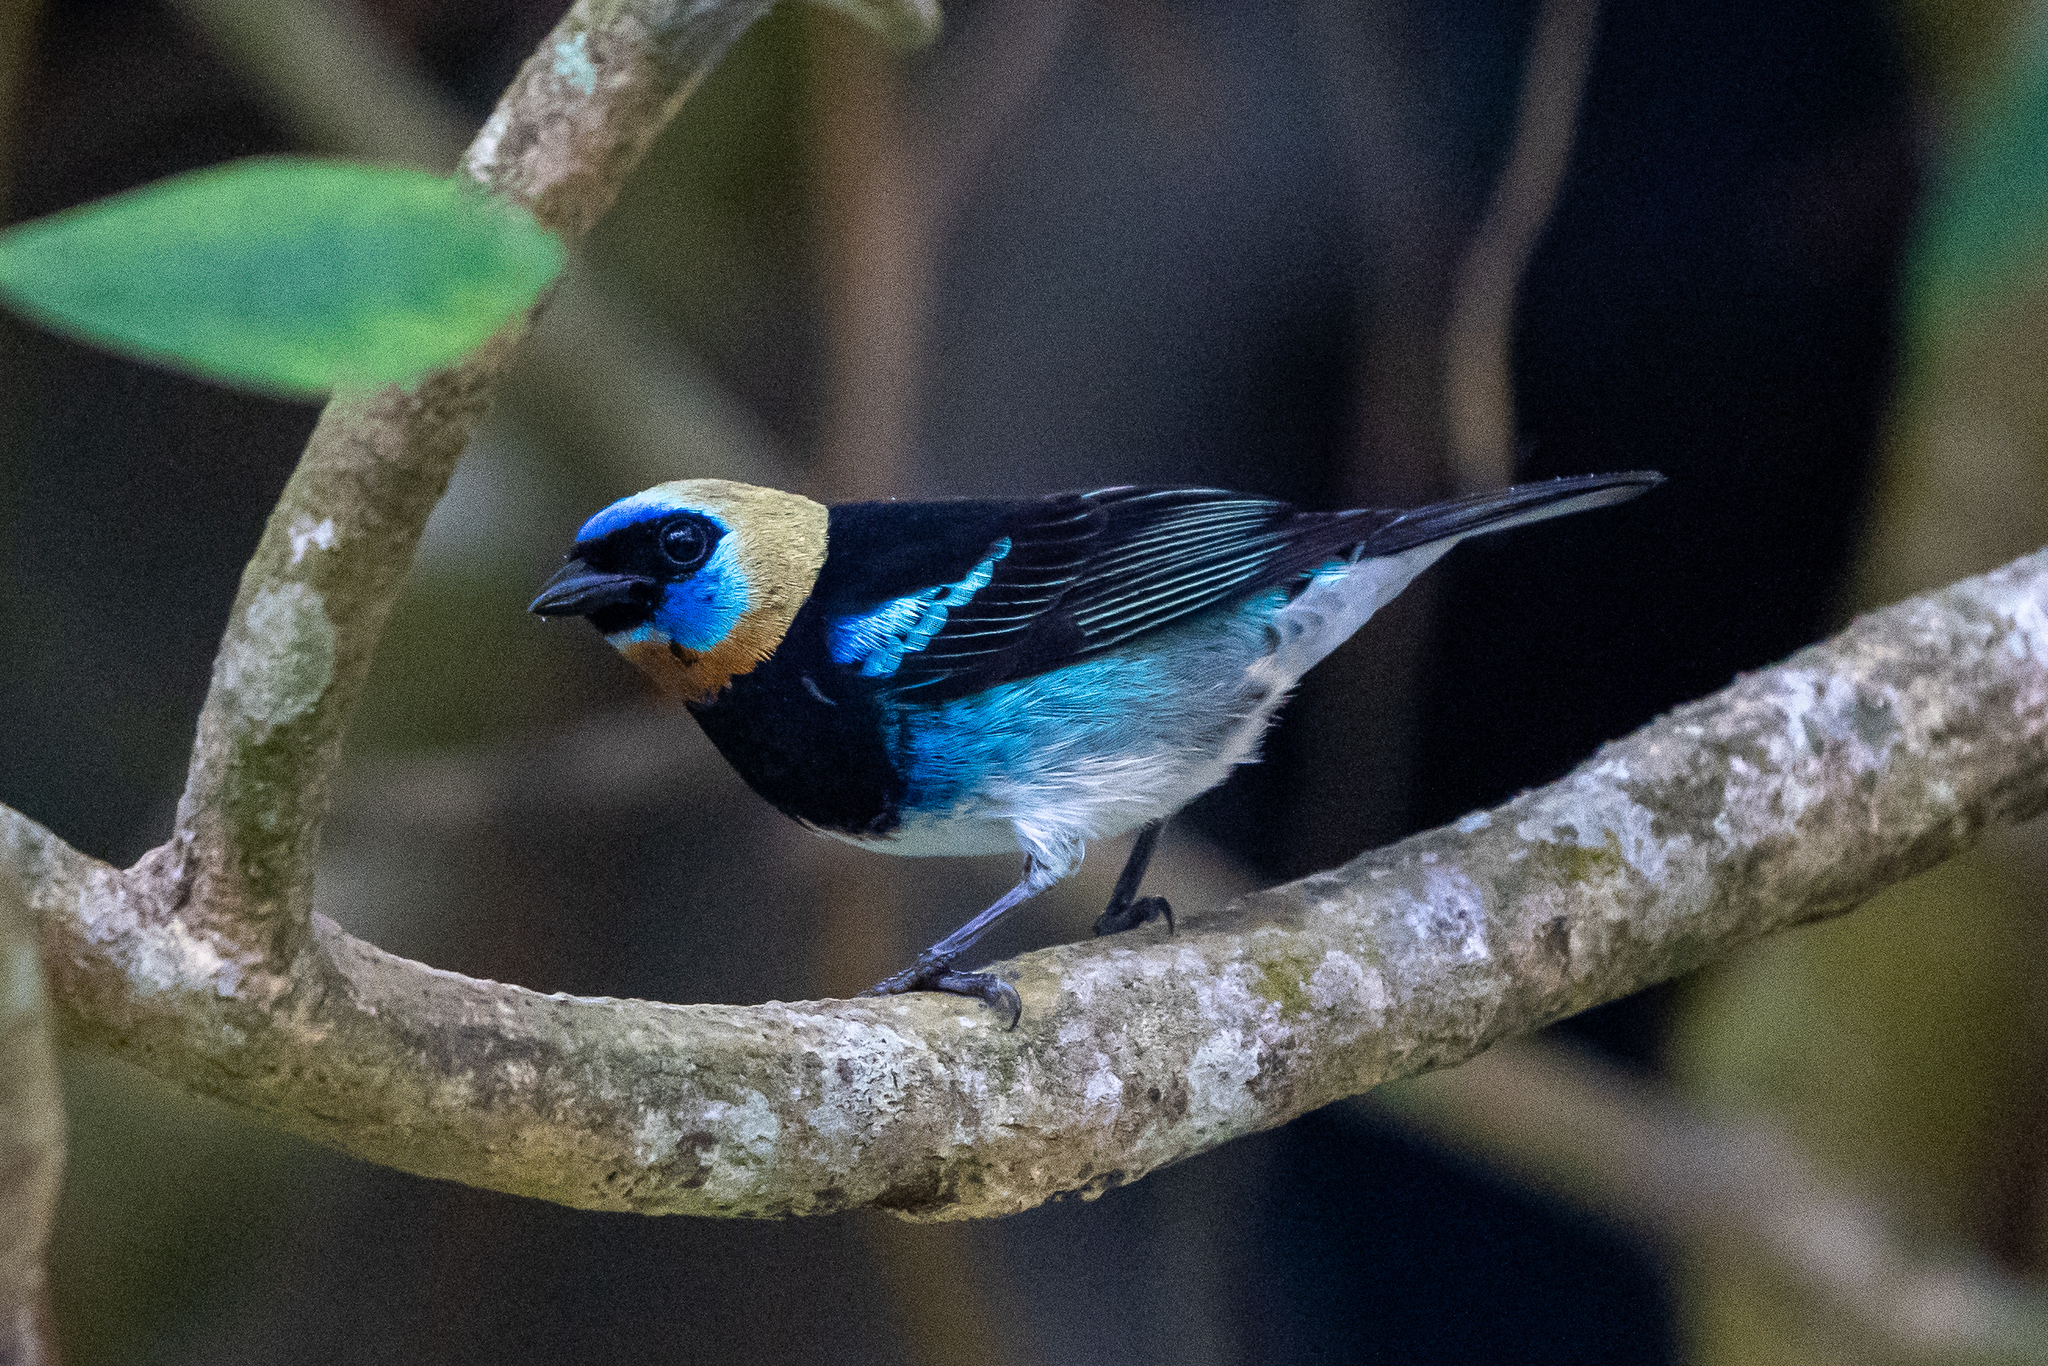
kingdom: Animalia
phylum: Chordata
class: Aves
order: Passeriformes
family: Thraupidae
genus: Stilpnia
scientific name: Stilpnia larvata
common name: Golden-hooded tanager
